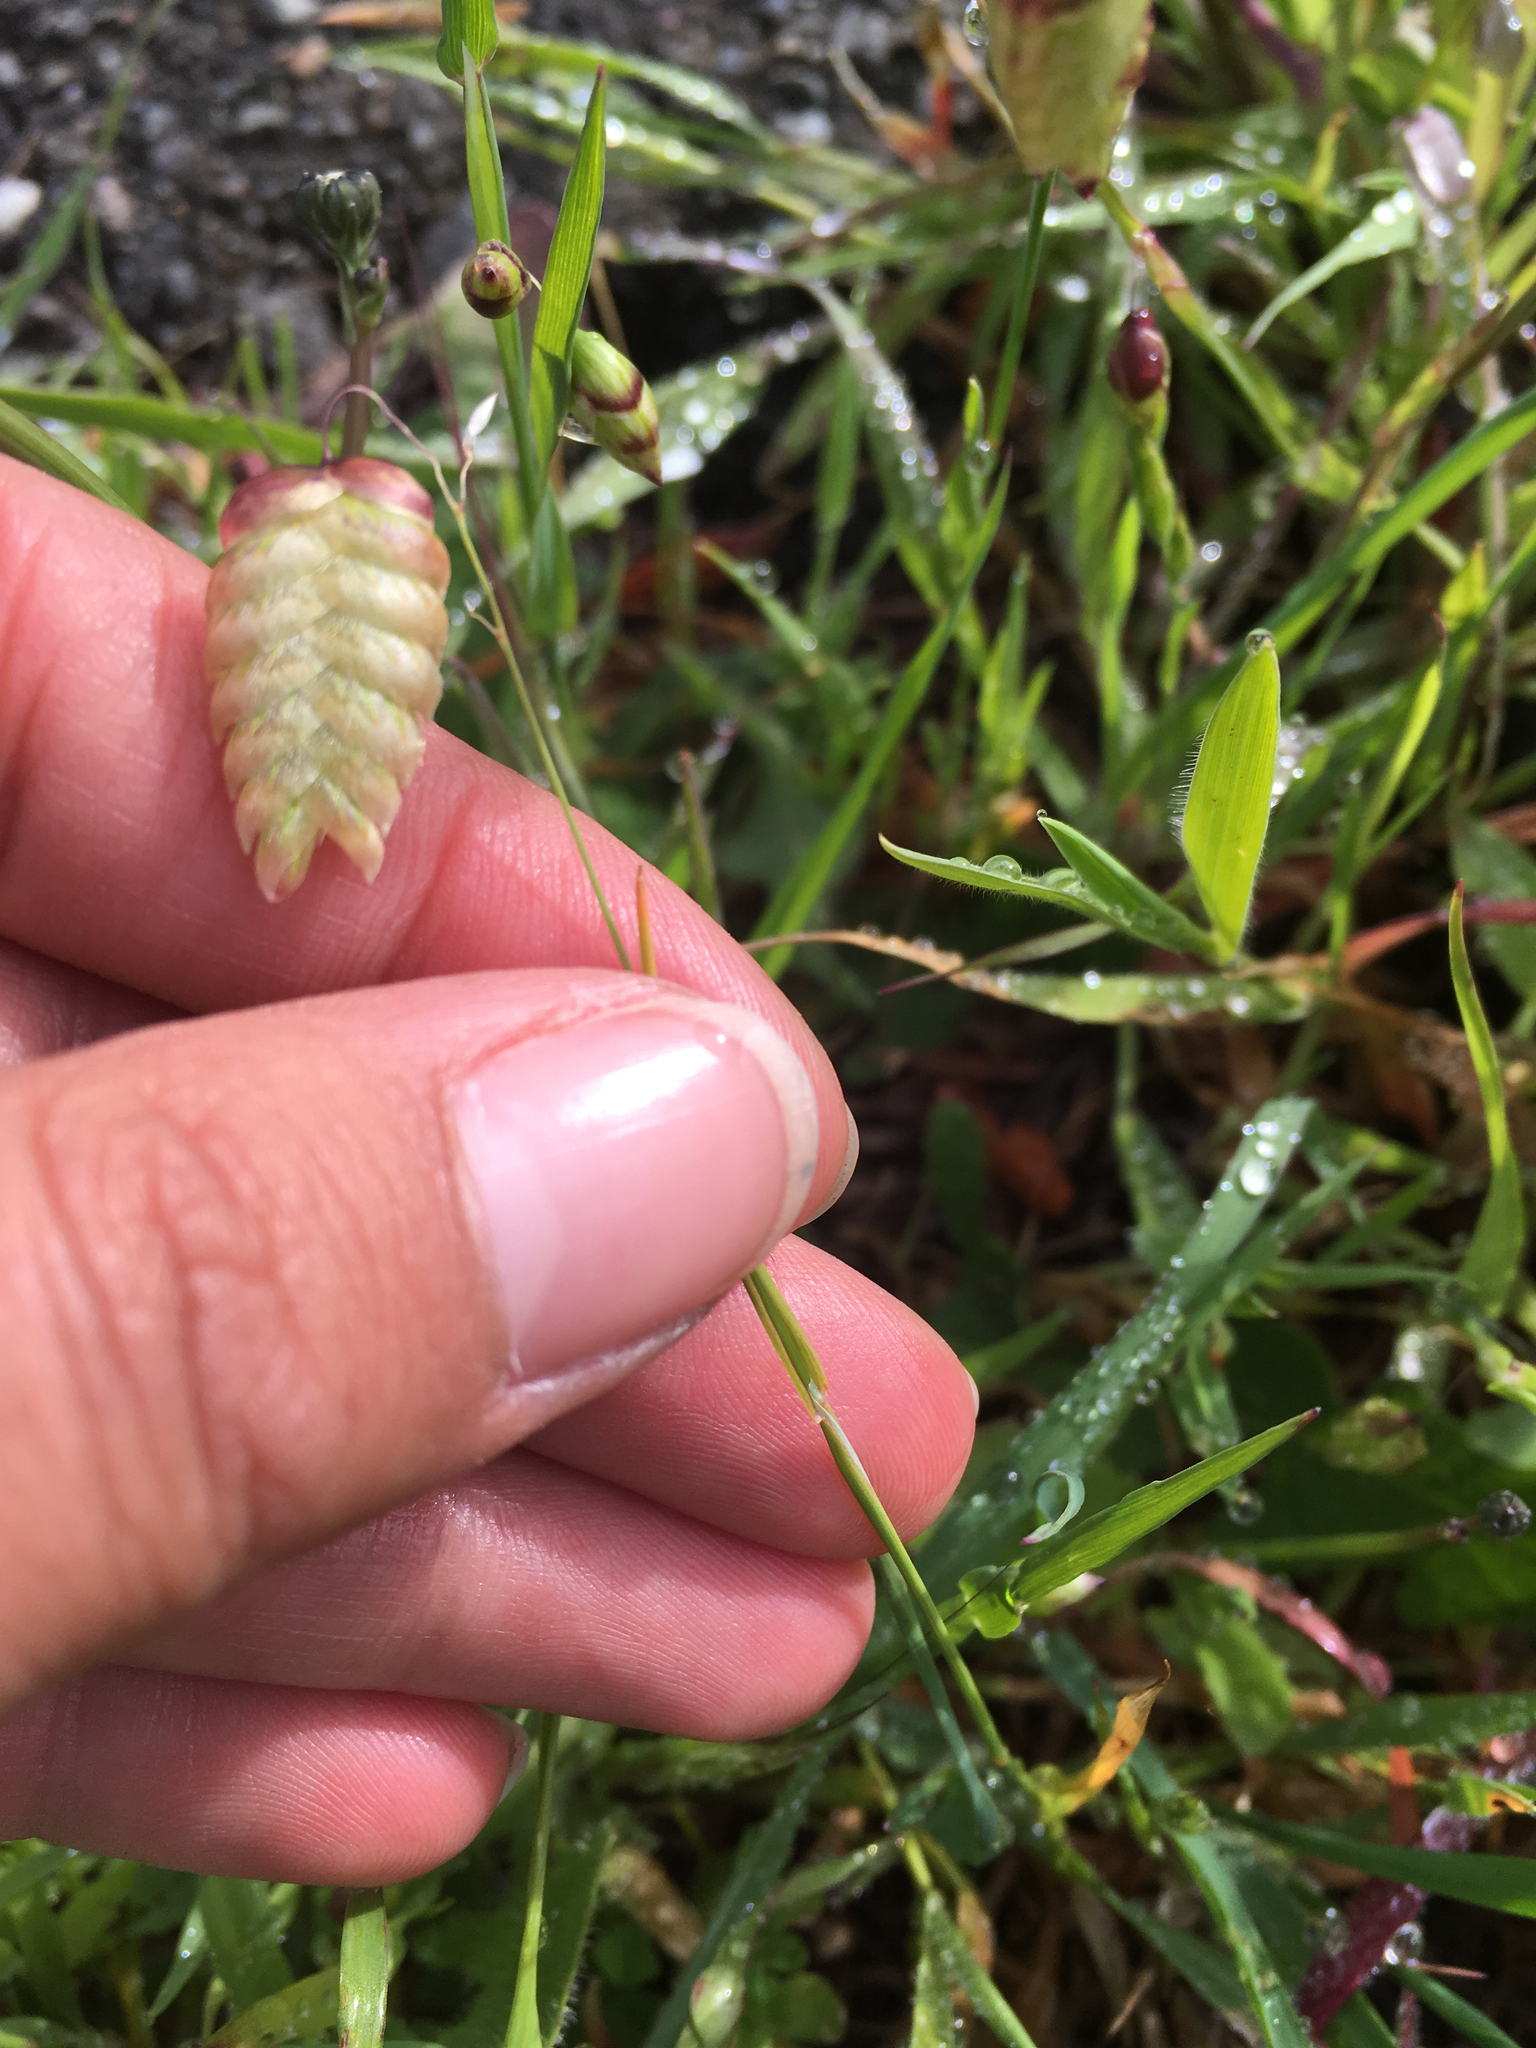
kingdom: Plantae
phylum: Tracheophyta
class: Liliopsida
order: Poales
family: Poaceae
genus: Briza
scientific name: Briza maxima
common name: Big quakinggrass
